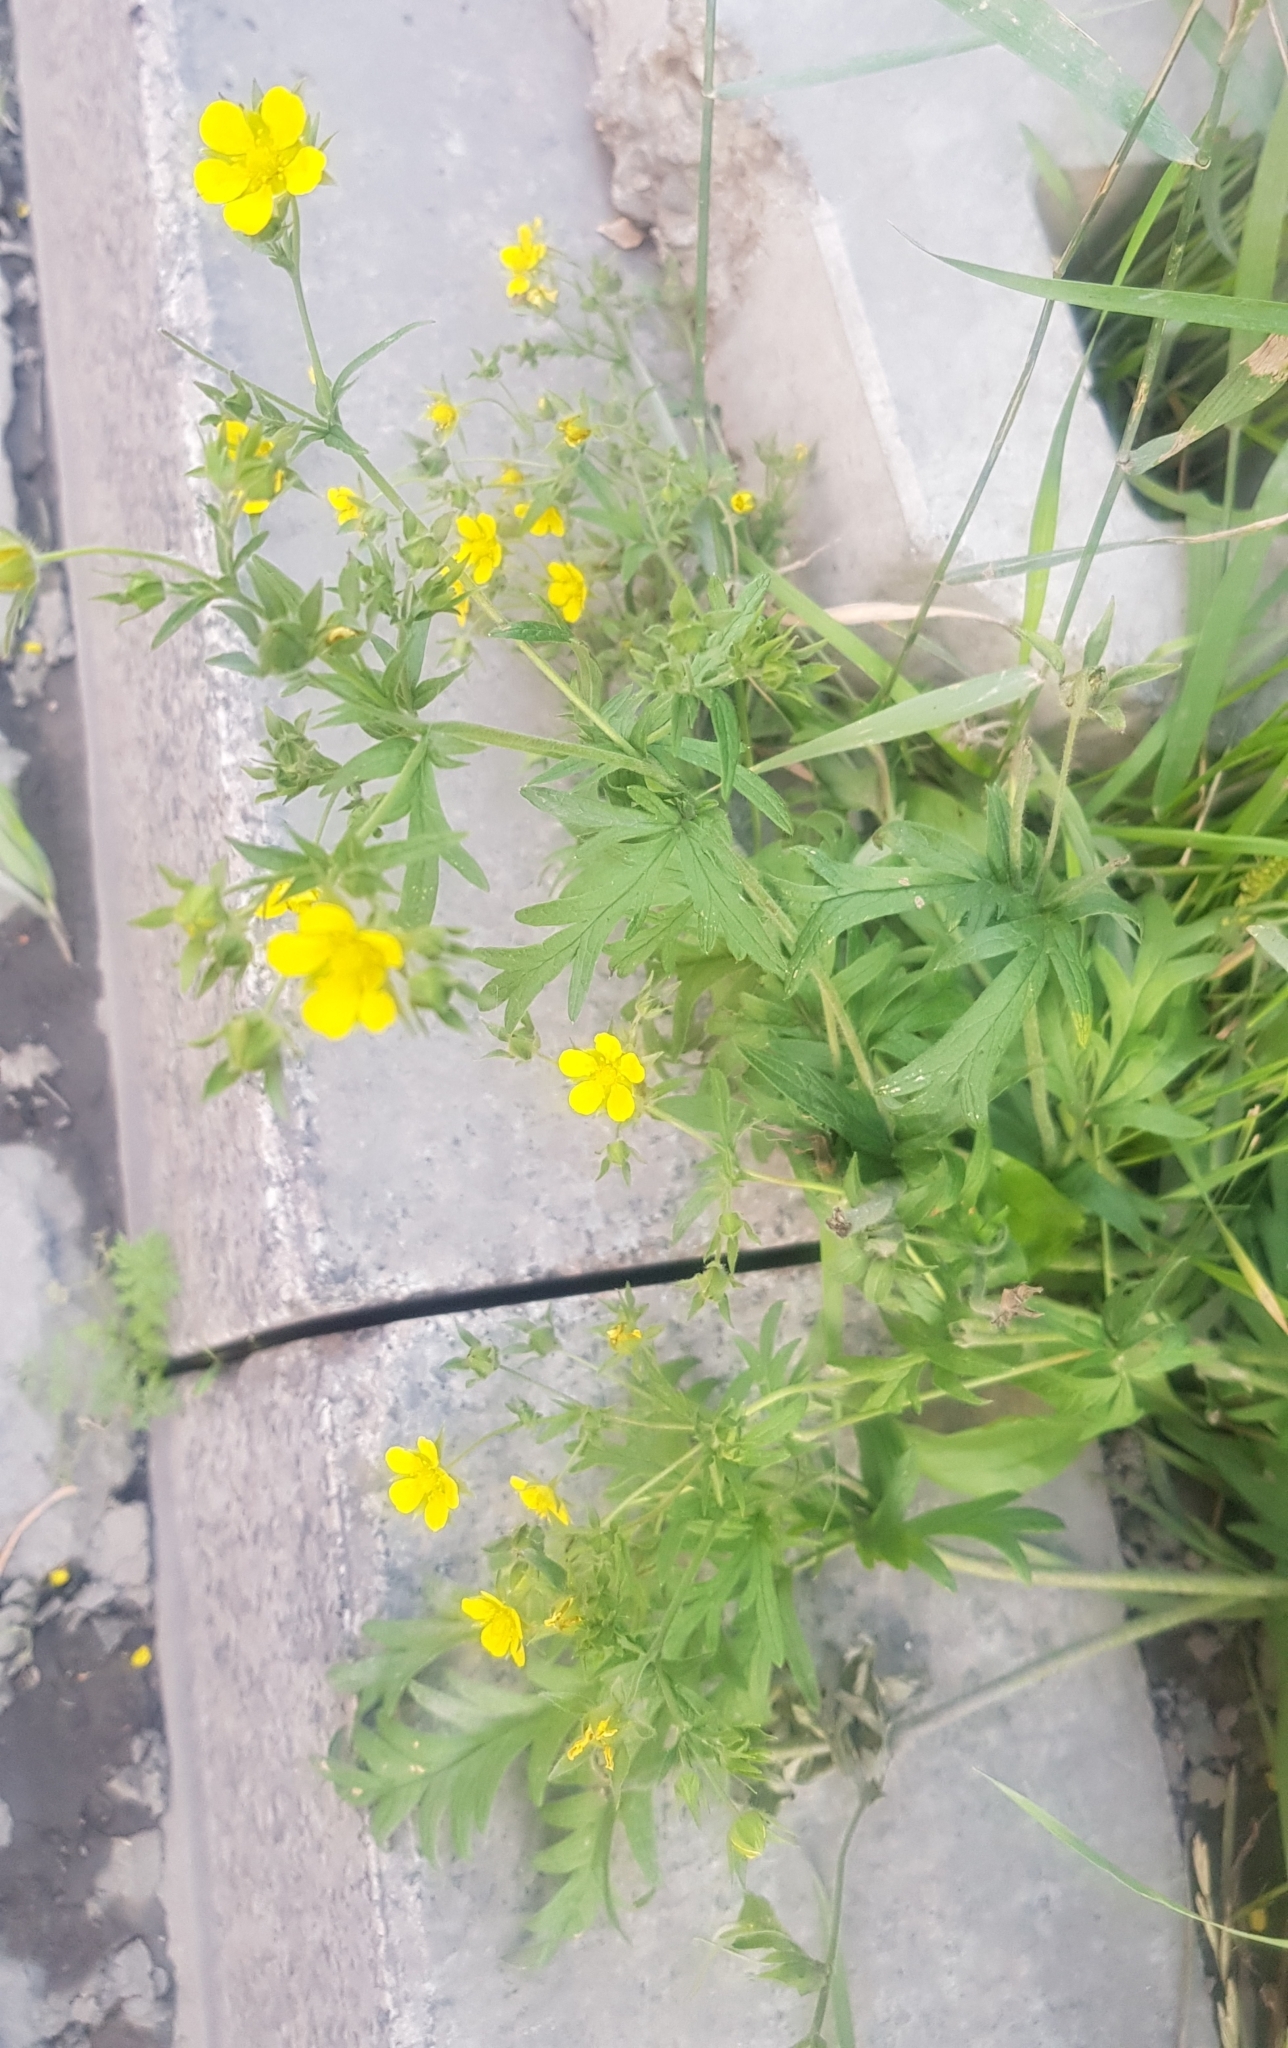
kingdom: Plantae
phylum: Tracheophyta
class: Magnoliopsida
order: Rosales
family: Rosaceae
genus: Potentilla
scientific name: Potentilla supina
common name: Prostrate cinquefoil
